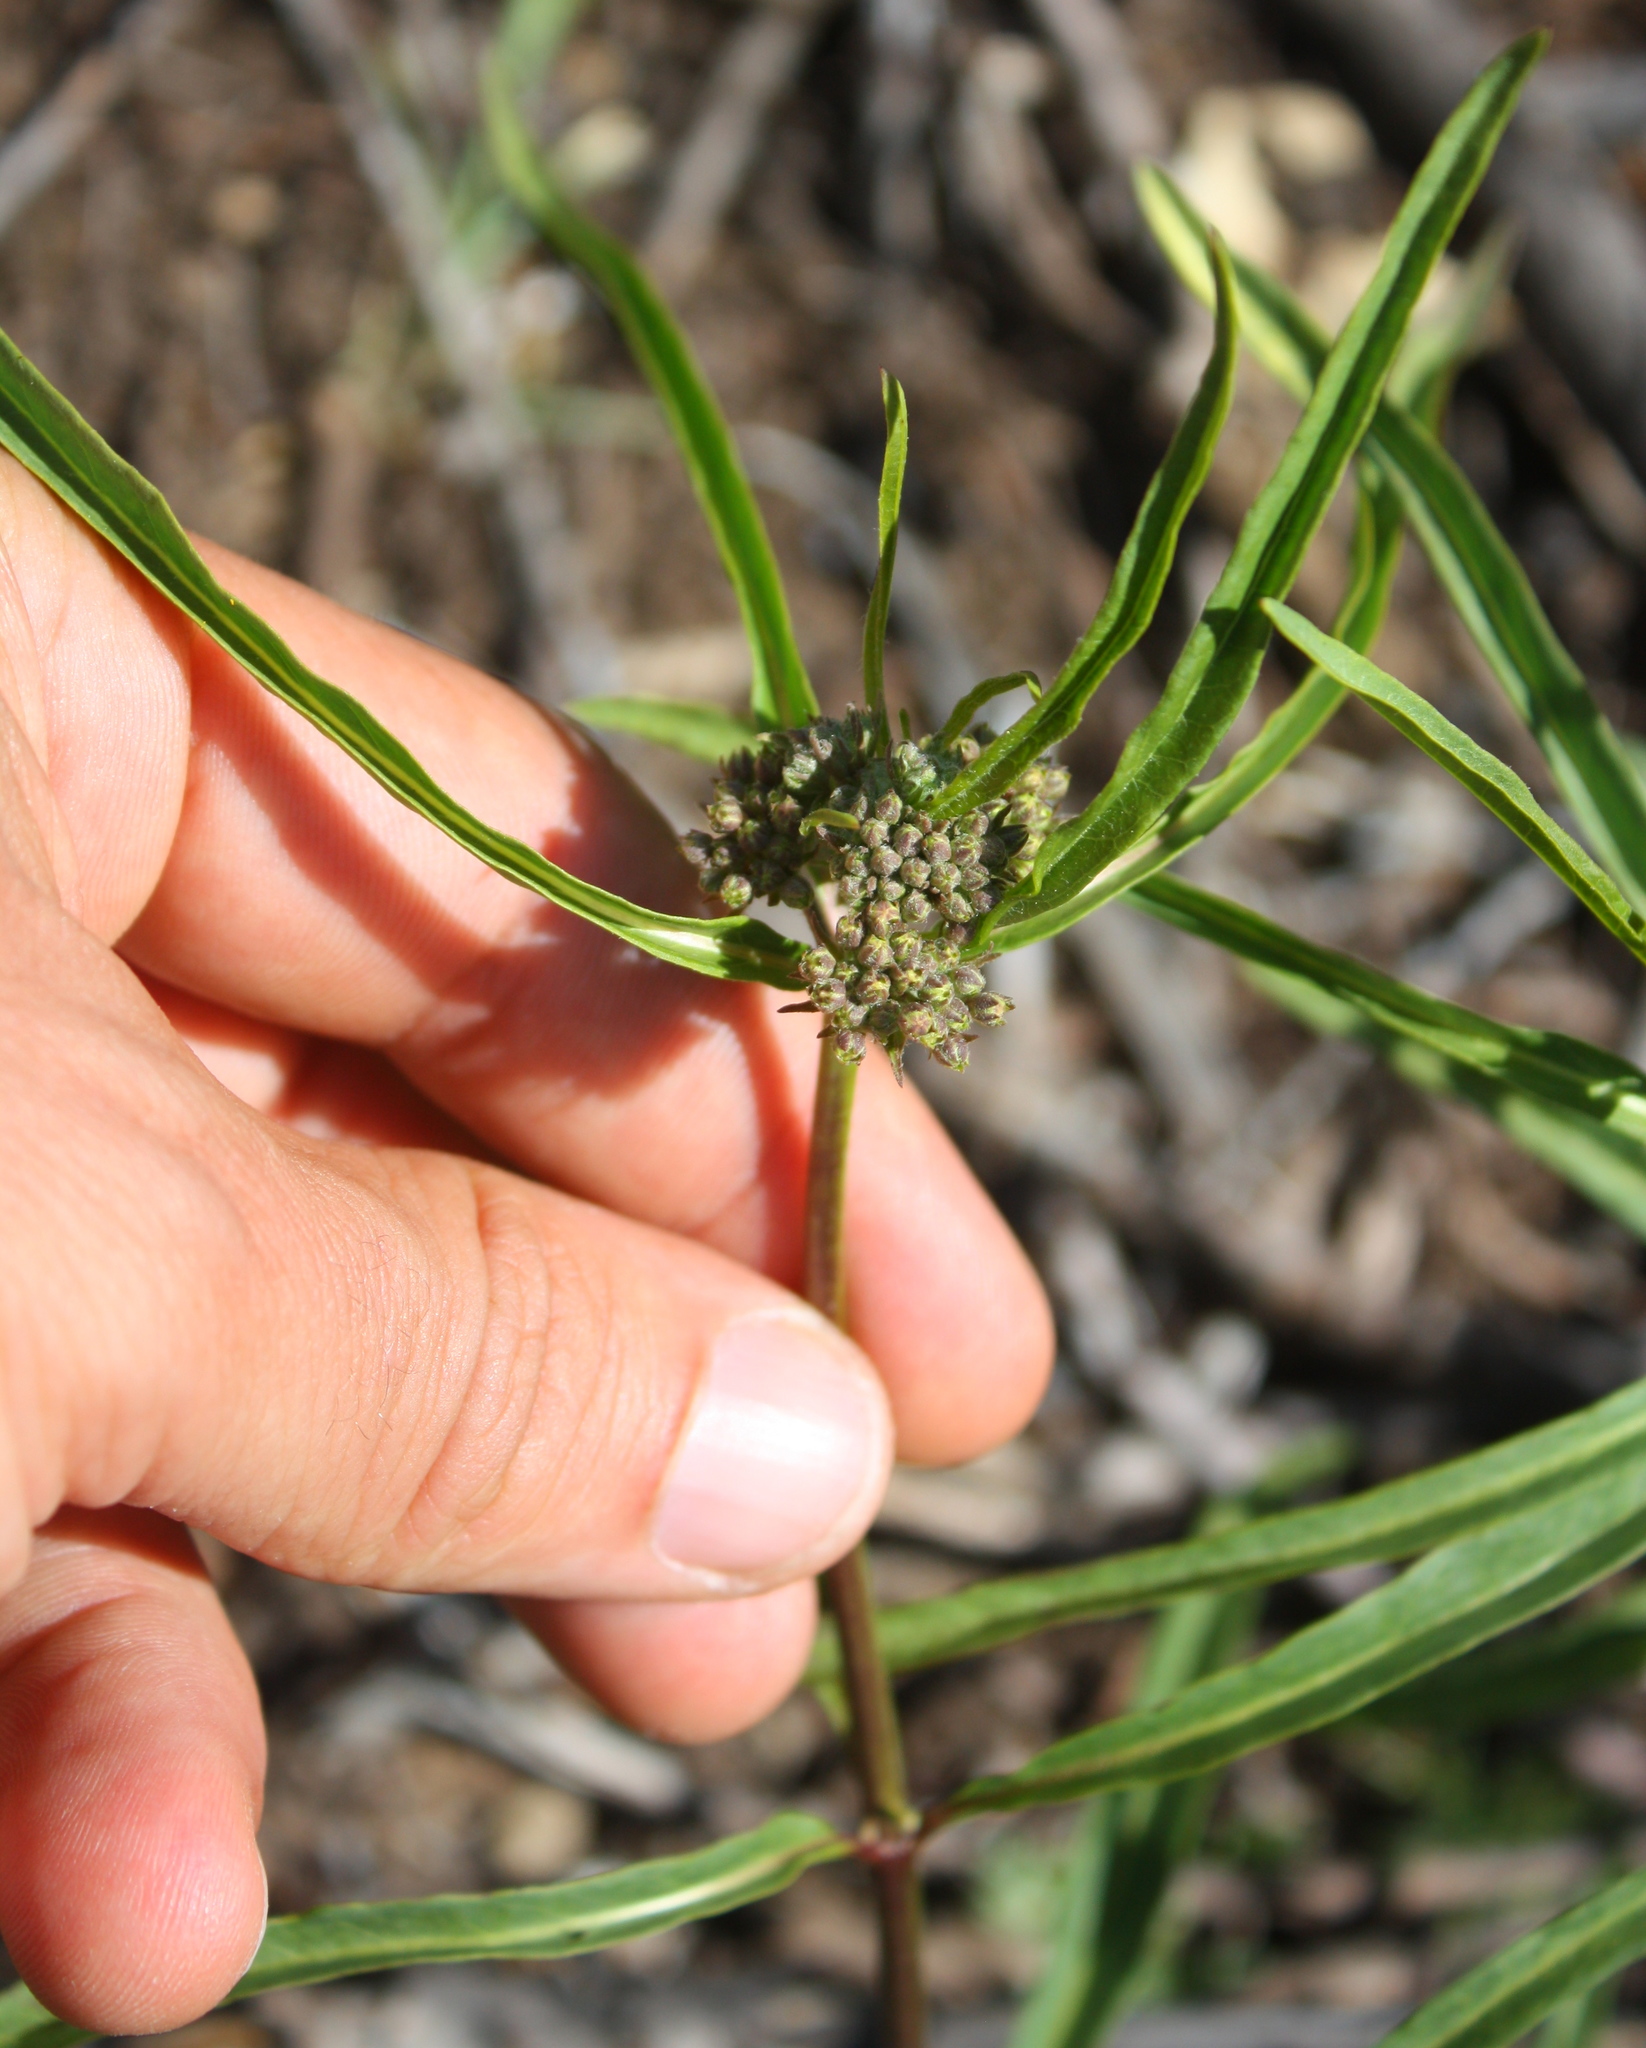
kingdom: Plantae
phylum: Tracheophyta
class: Magnoliopsida
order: Gentianales
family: Apocynaceae
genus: Asclepias
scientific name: Asclepias fascicularis
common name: Mexican milkweed
